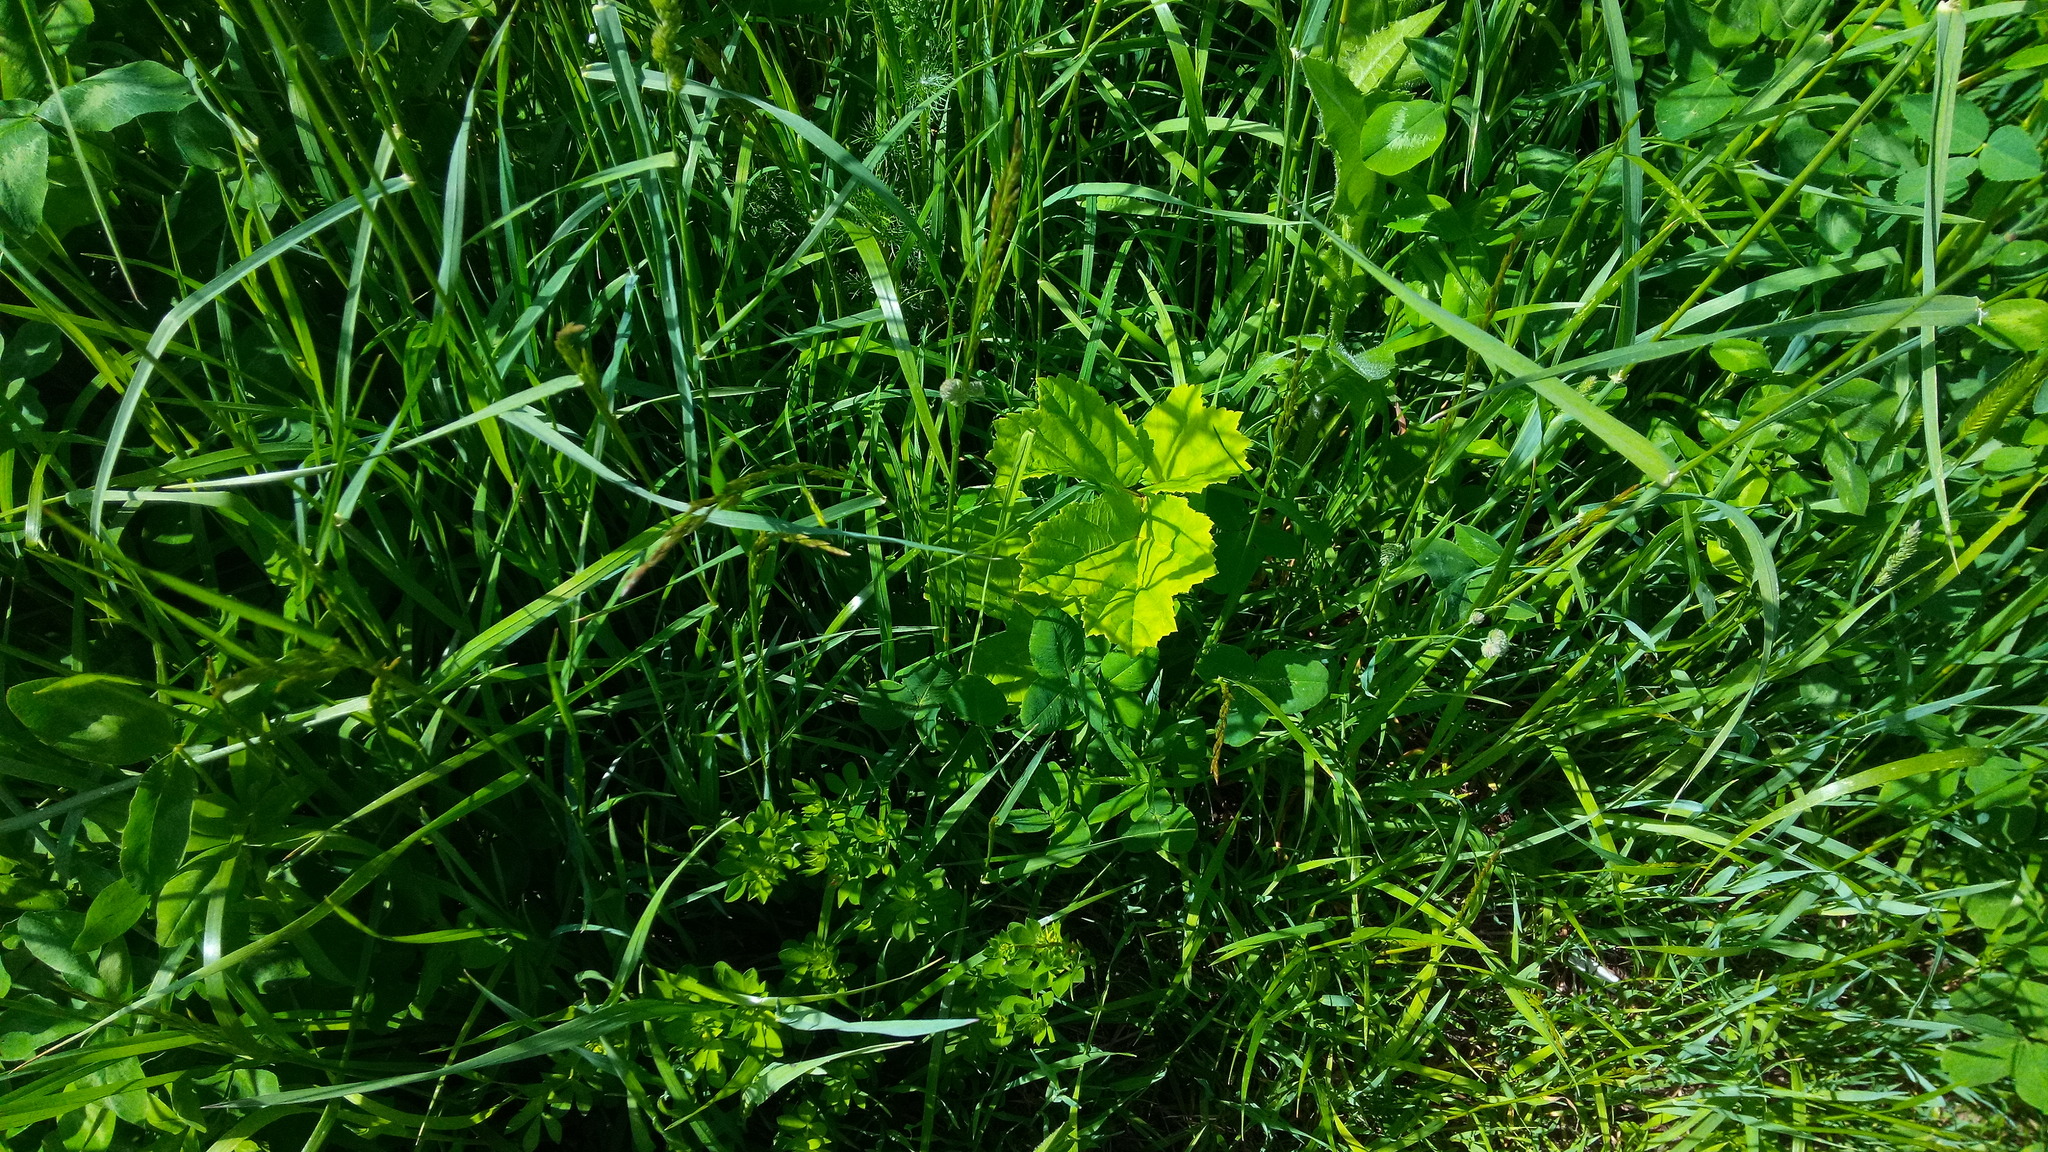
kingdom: Plantae
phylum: Tracheophyta
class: Magnoliopsida
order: Apiales
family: Apiaceae
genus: Heracleum
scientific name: Heracleum sosnowskyi
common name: Sosnowsky's hogweed
